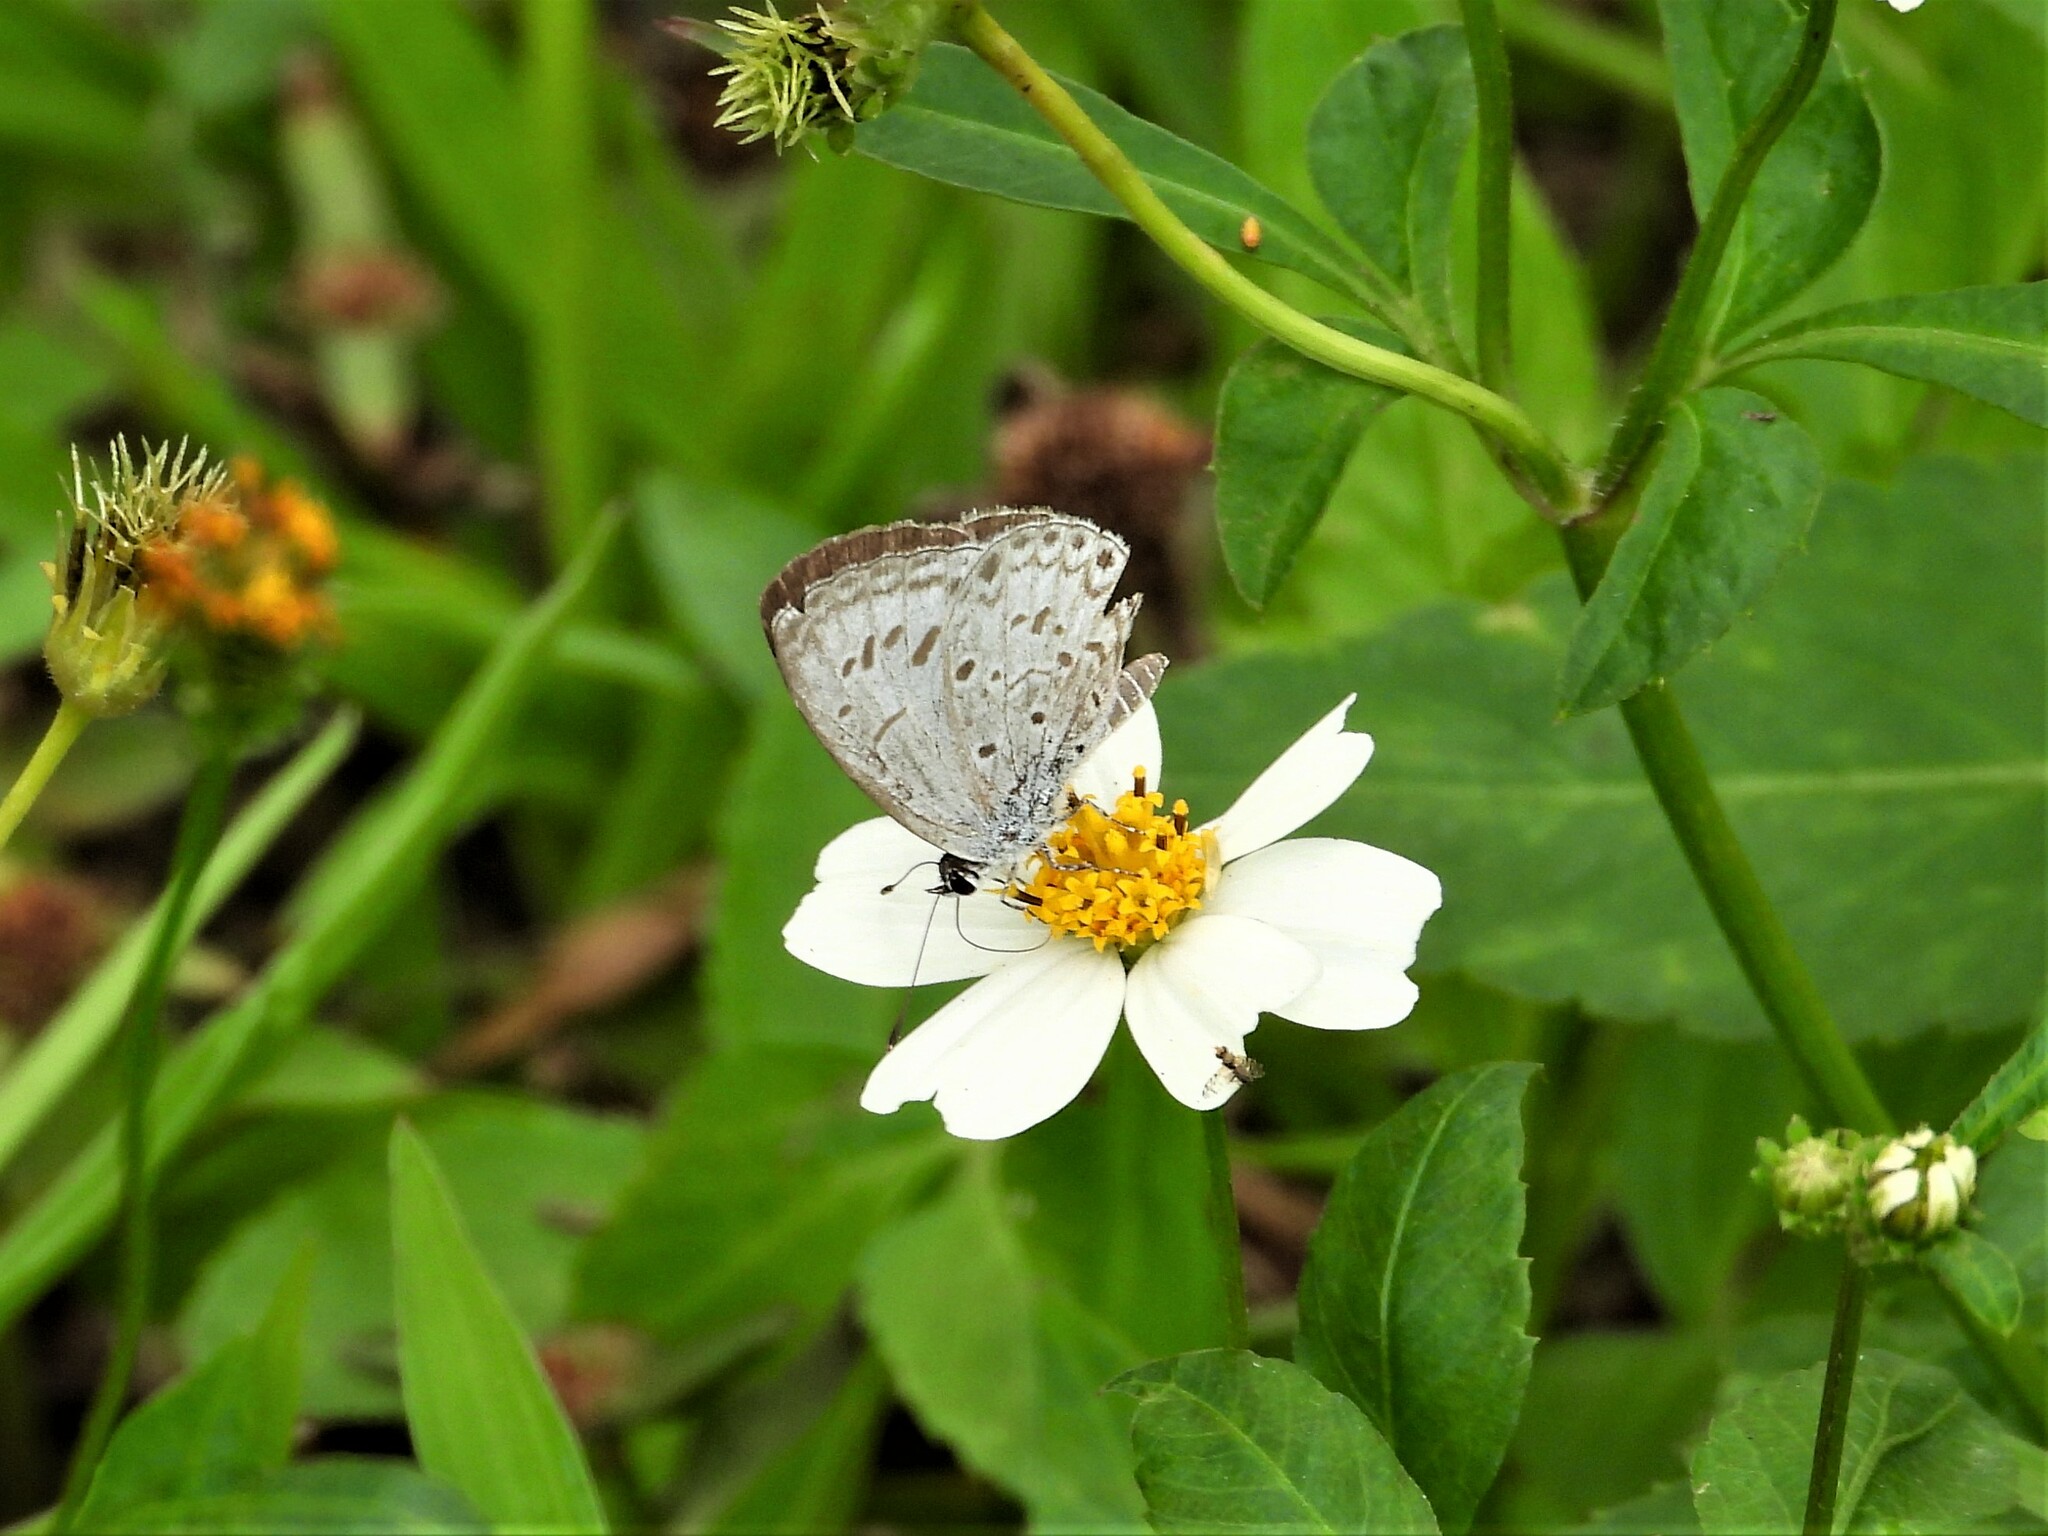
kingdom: Animalia
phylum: Arthropoda
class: Insecta
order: Lepidoptera
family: Lycaenidae
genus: Acytolepis
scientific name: Acytolepis puspa
